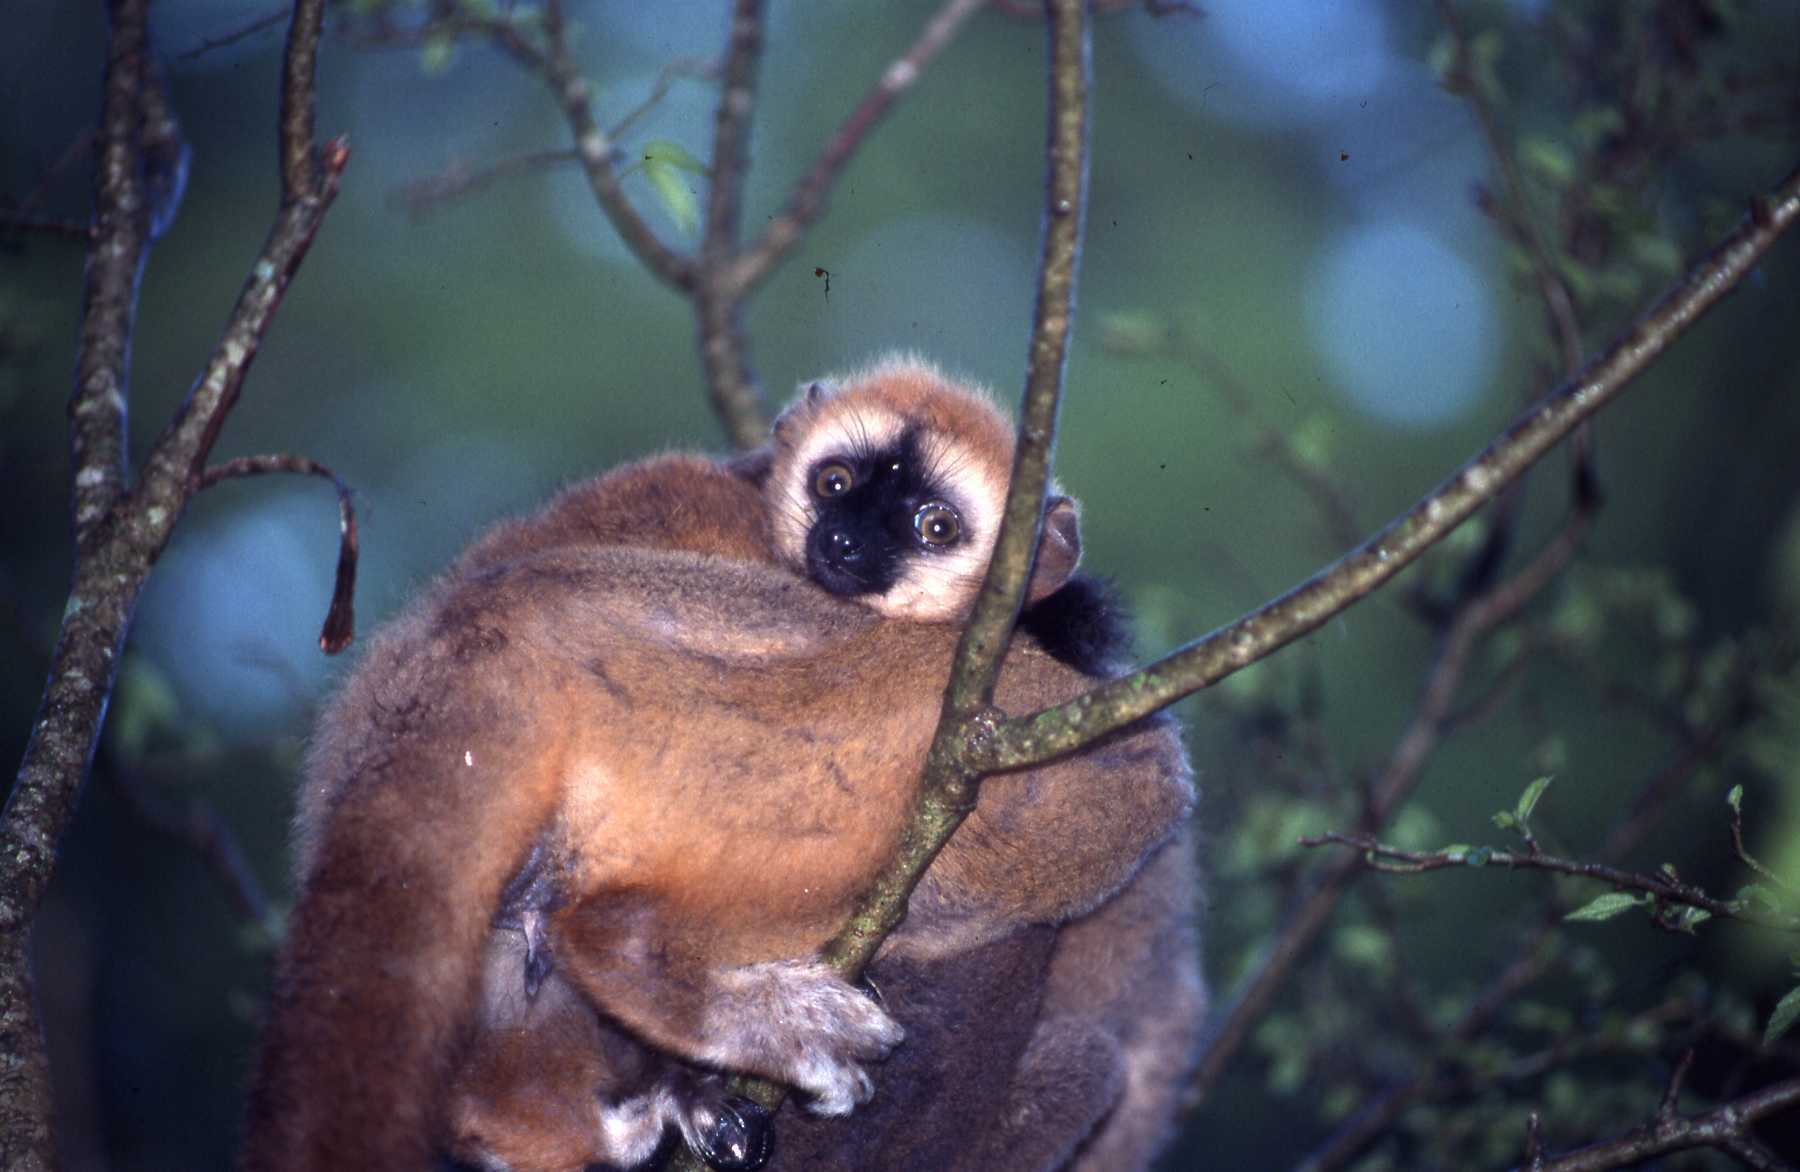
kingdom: Animalia
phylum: Chordata
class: Mammalia
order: Primates
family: Lemuridae
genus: Eulemur
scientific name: Eulemur
